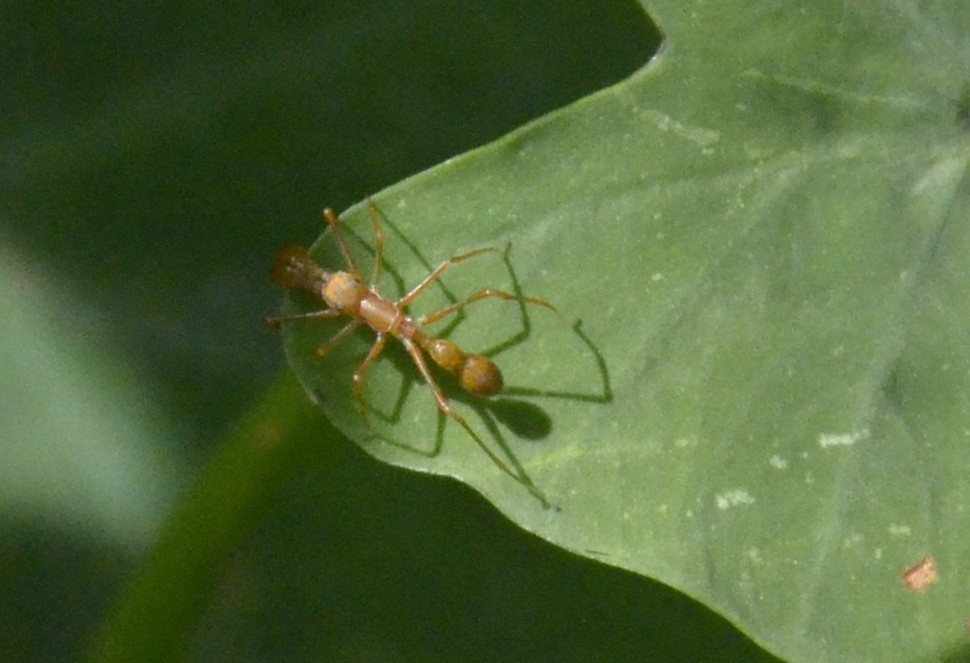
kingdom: Animalia
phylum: Arthropoda
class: Arachnida
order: Araneae
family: Salticidae
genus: Myrmaplata
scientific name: Myrmaplata plataleoides
